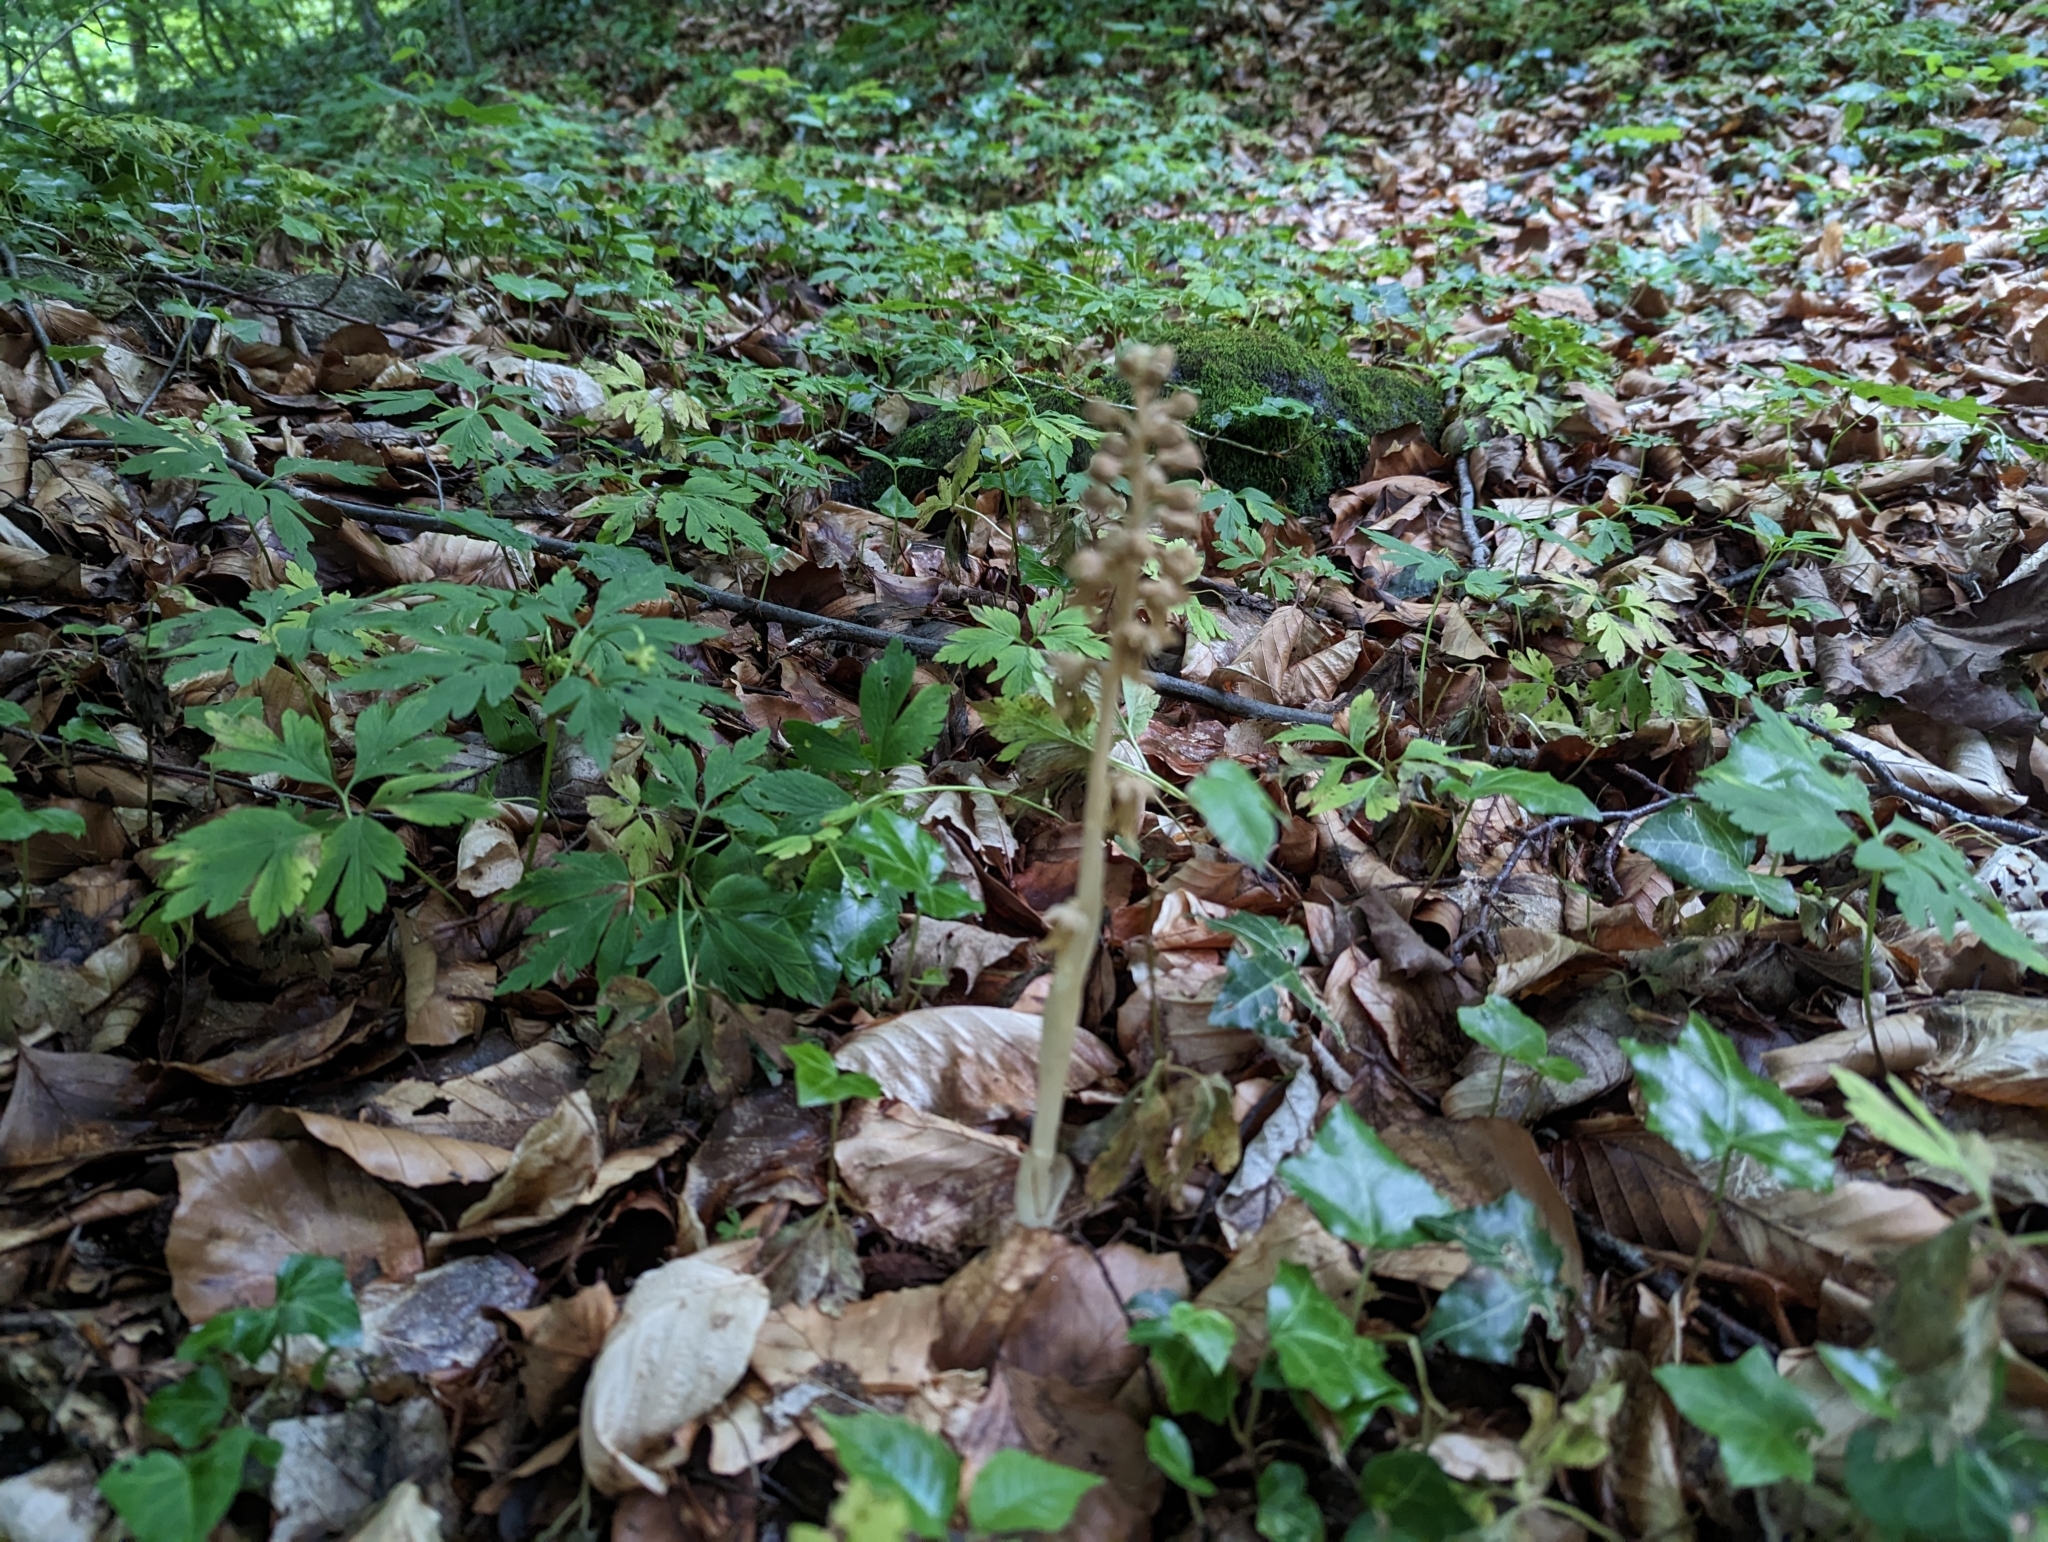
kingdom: Plantae
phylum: Tracheophyta
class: Liliopsida
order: Asparagales
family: Orchidaceae
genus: Neottia
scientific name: Neottia nidus-avis
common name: Bird's-nest orchid
